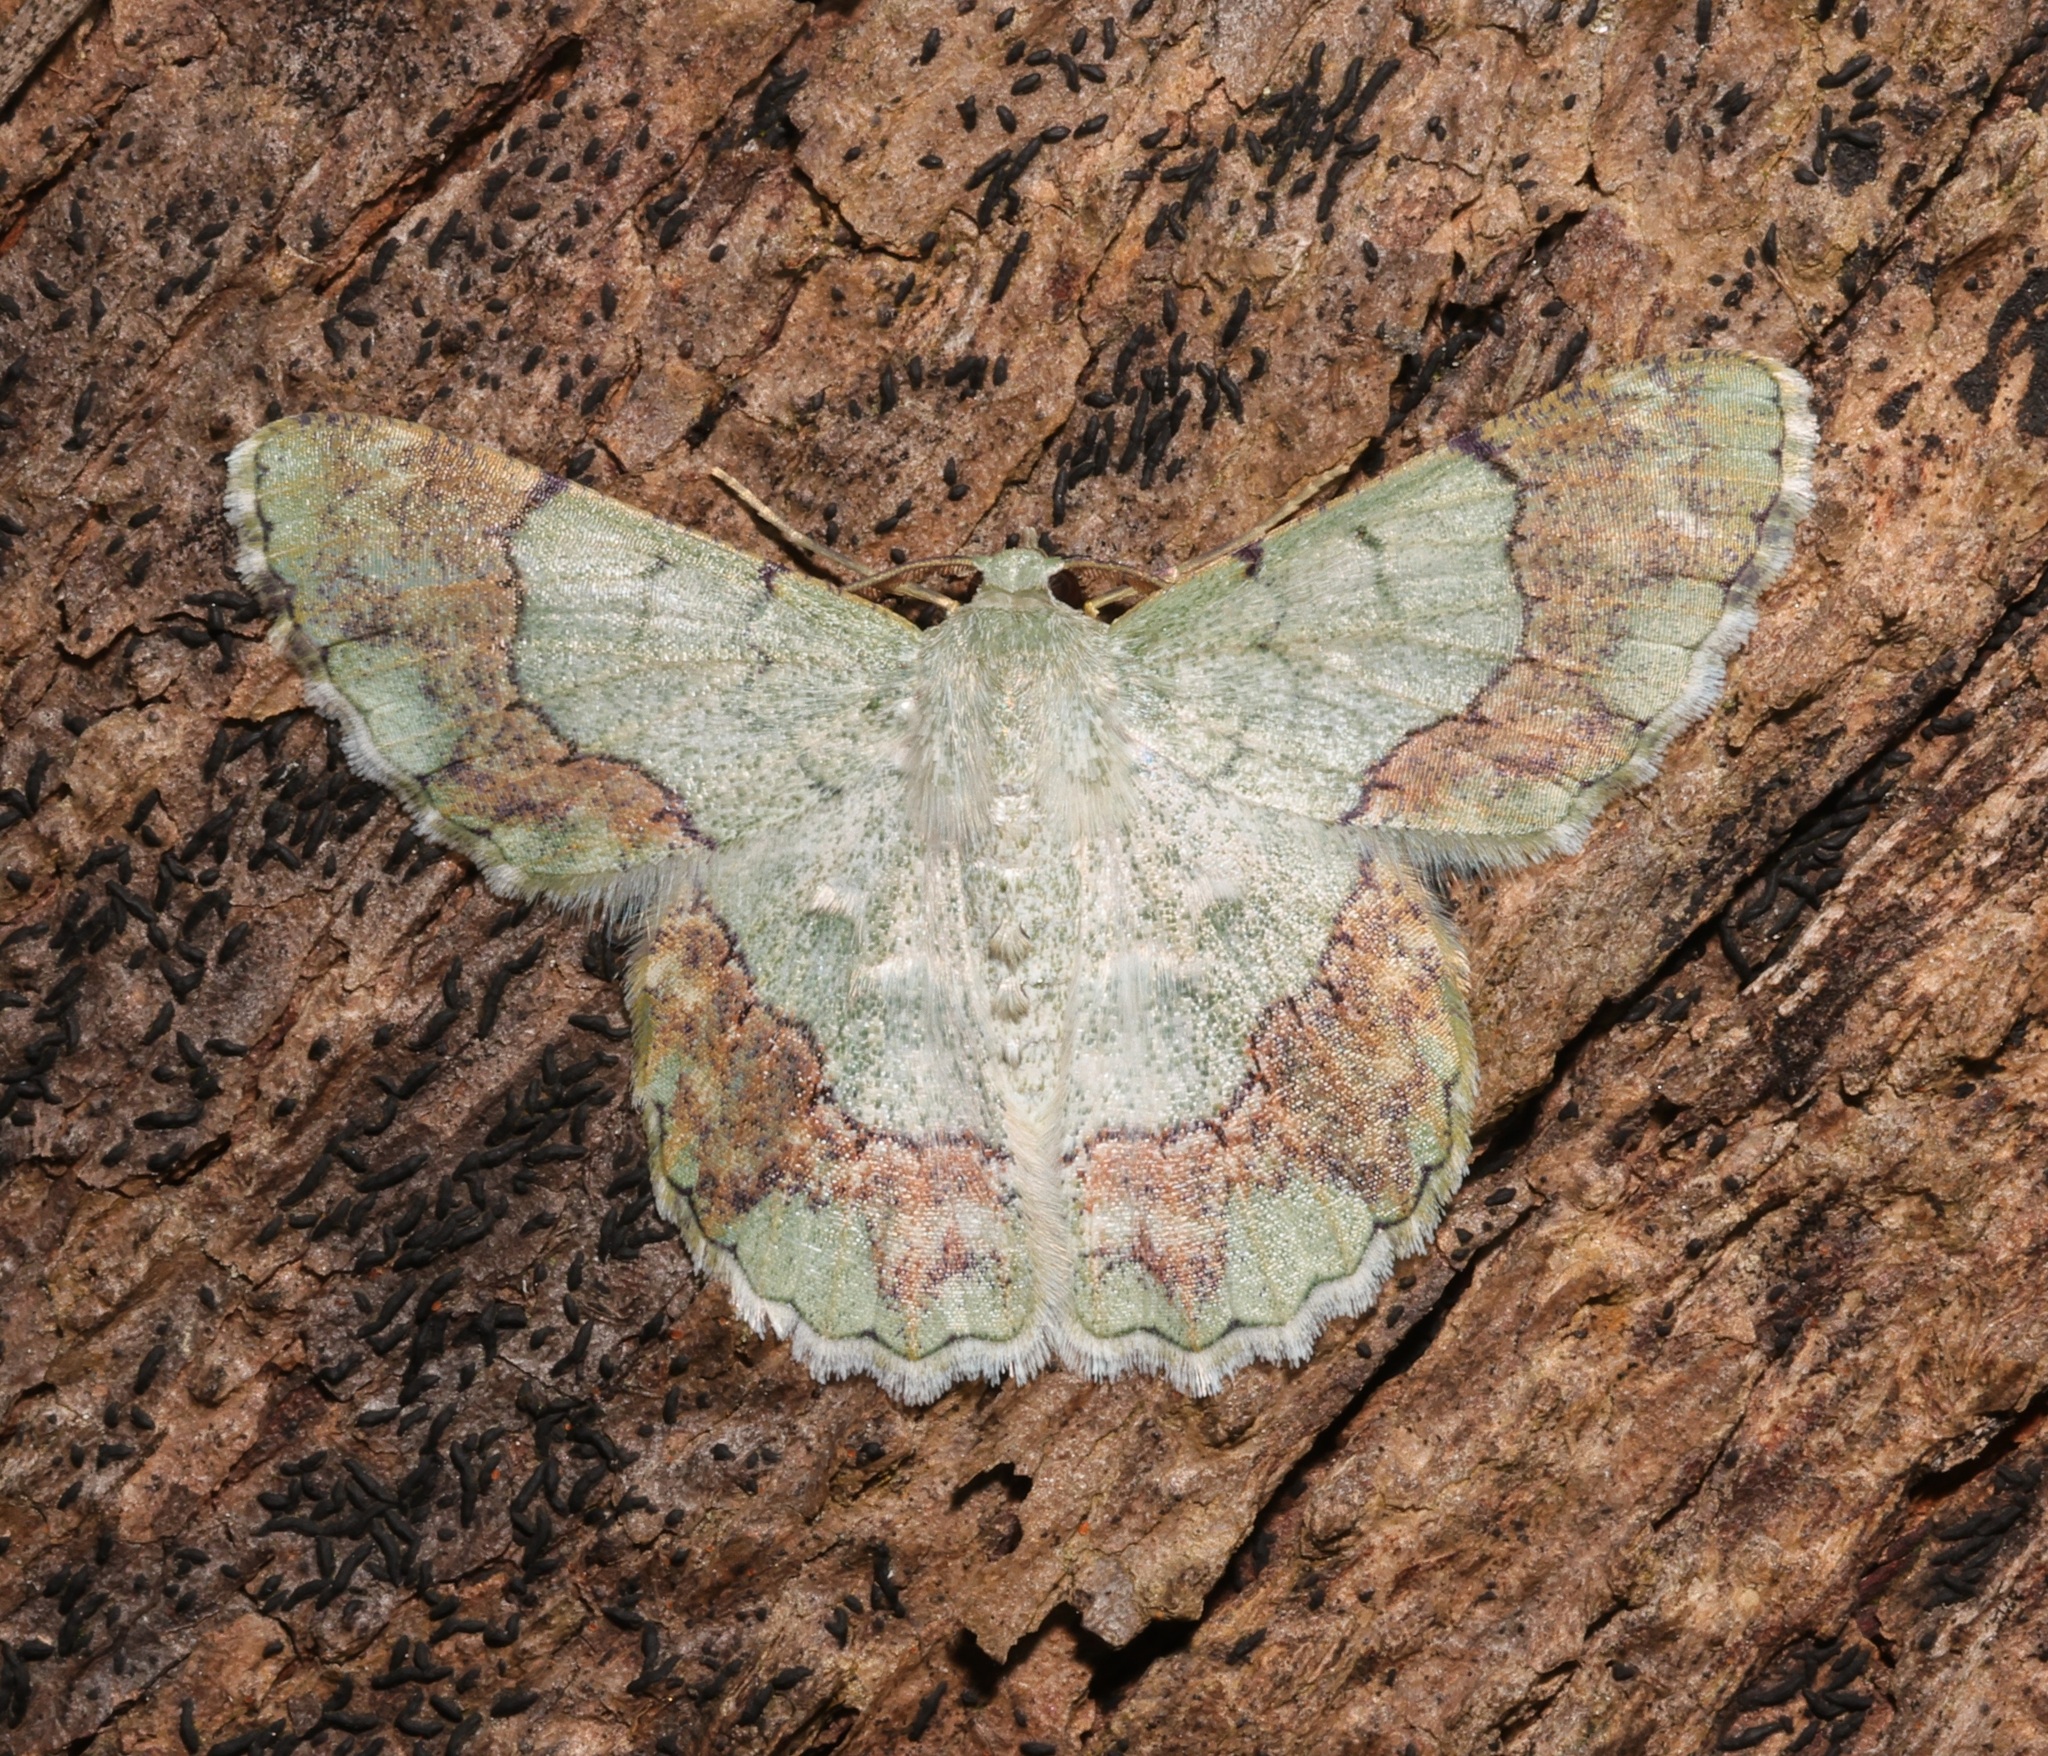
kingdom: Animalia
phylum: Arthropoda
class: Insecta
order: Lepidoptera
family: Geometridae
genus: Pingasa
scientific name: Pingasa ruginaria
